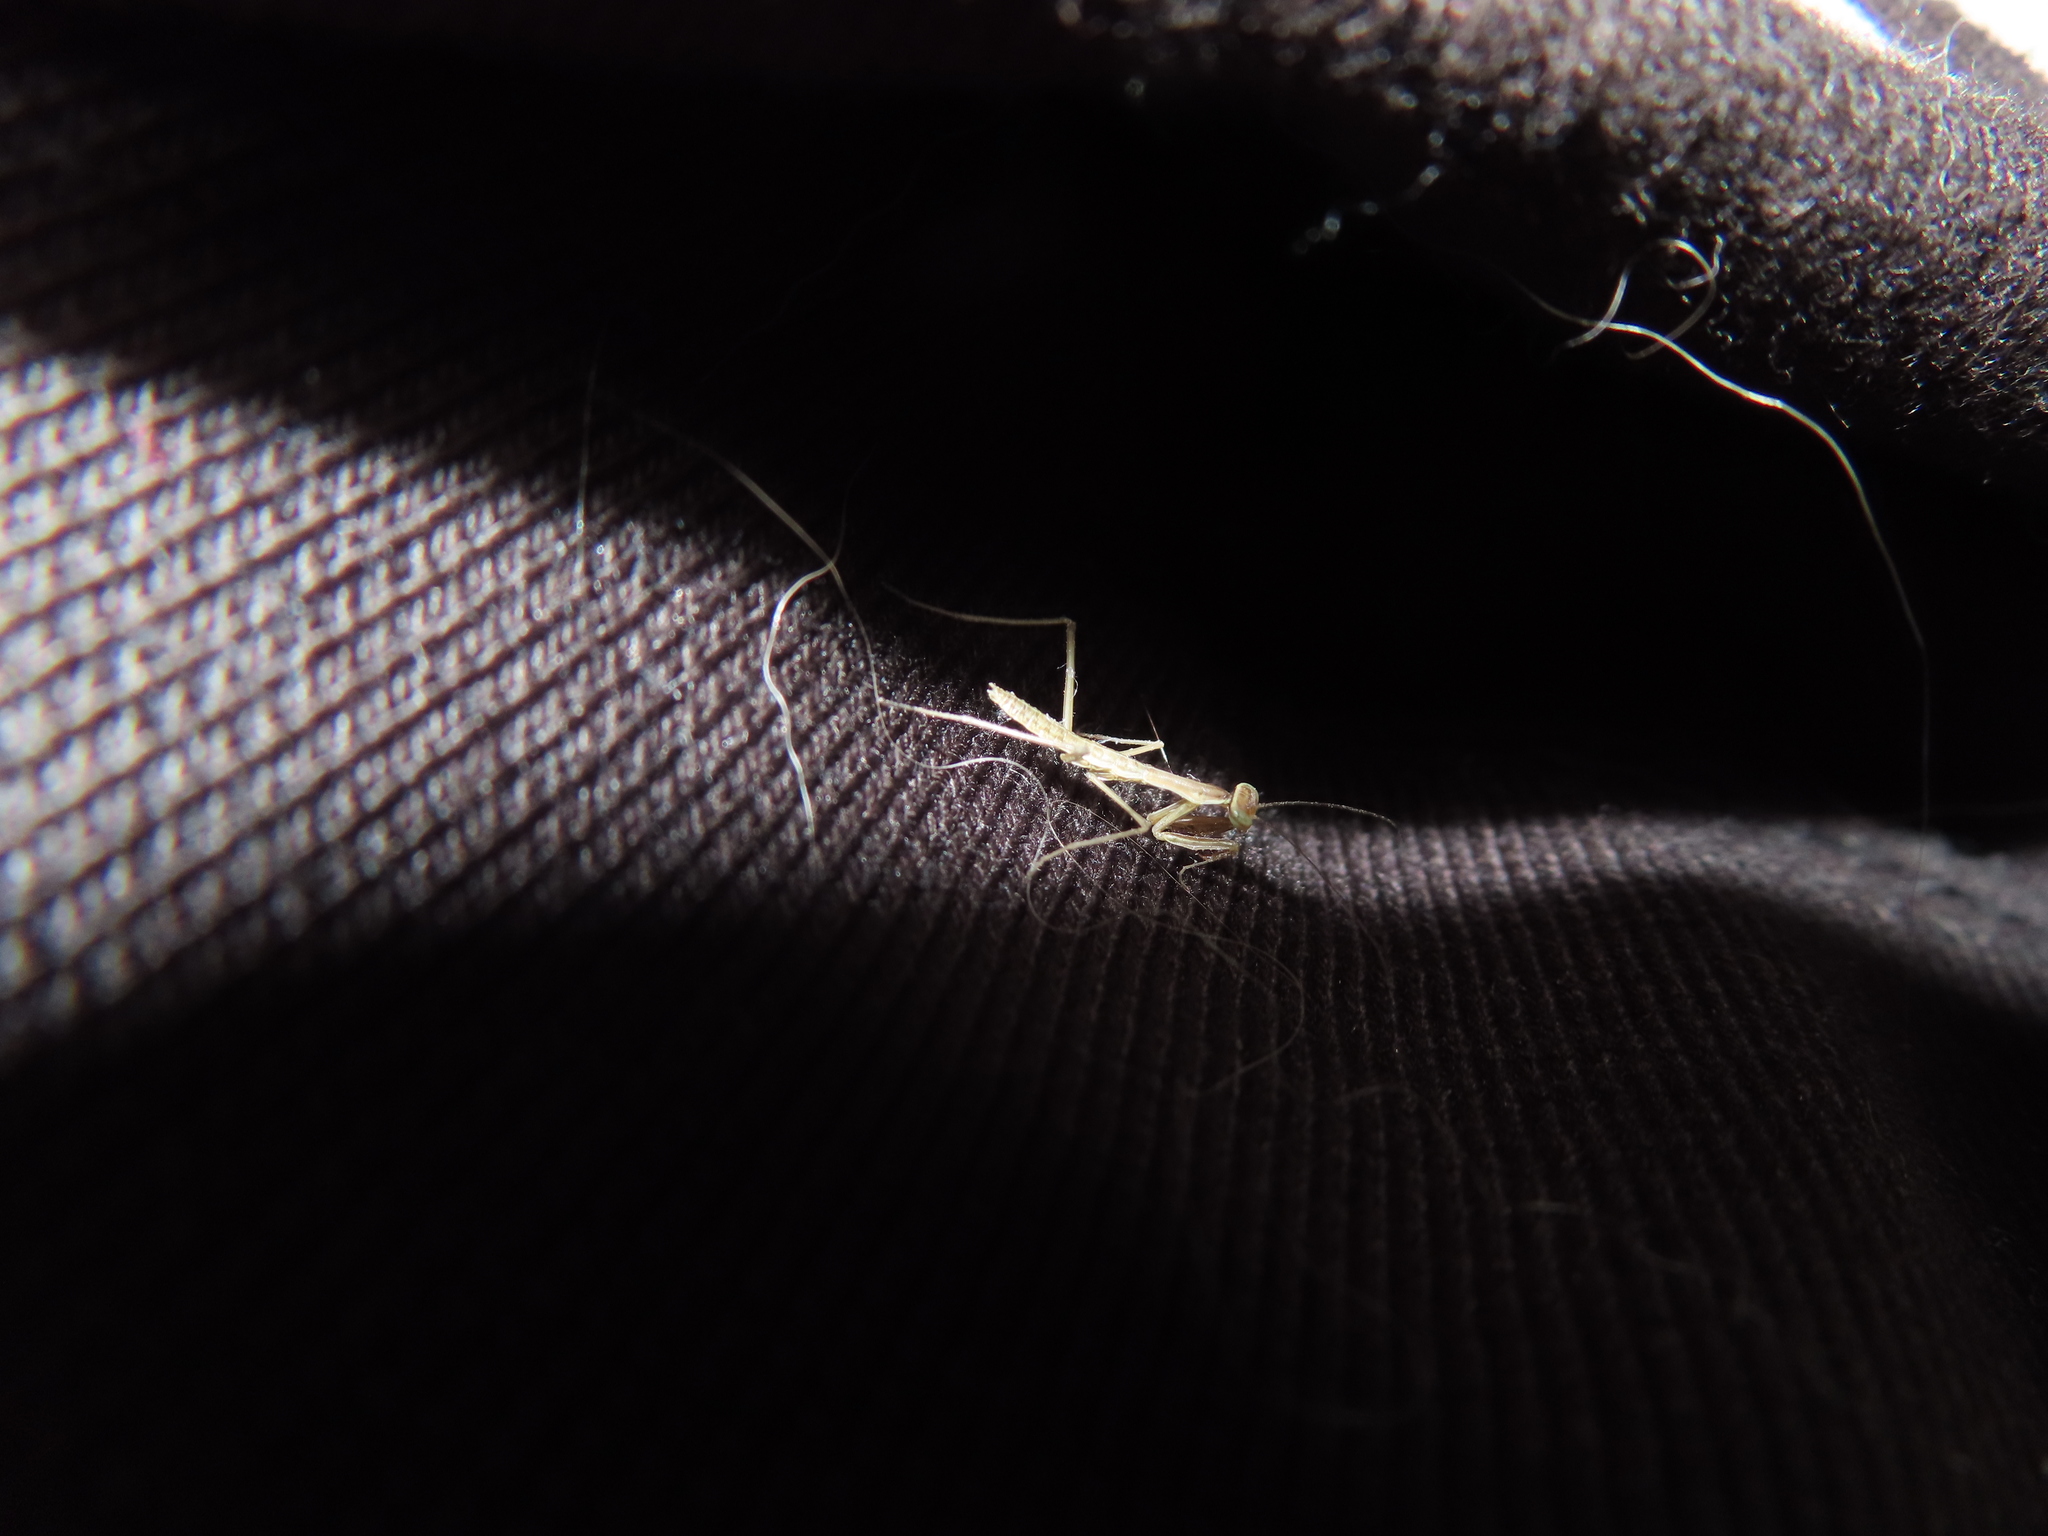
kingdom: Animalia
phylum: Arthropoda
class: Insecta
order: Mantodea
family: Mantidae
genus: Tenodera
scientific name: Tenodera sinensis
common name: Chinese mantis
